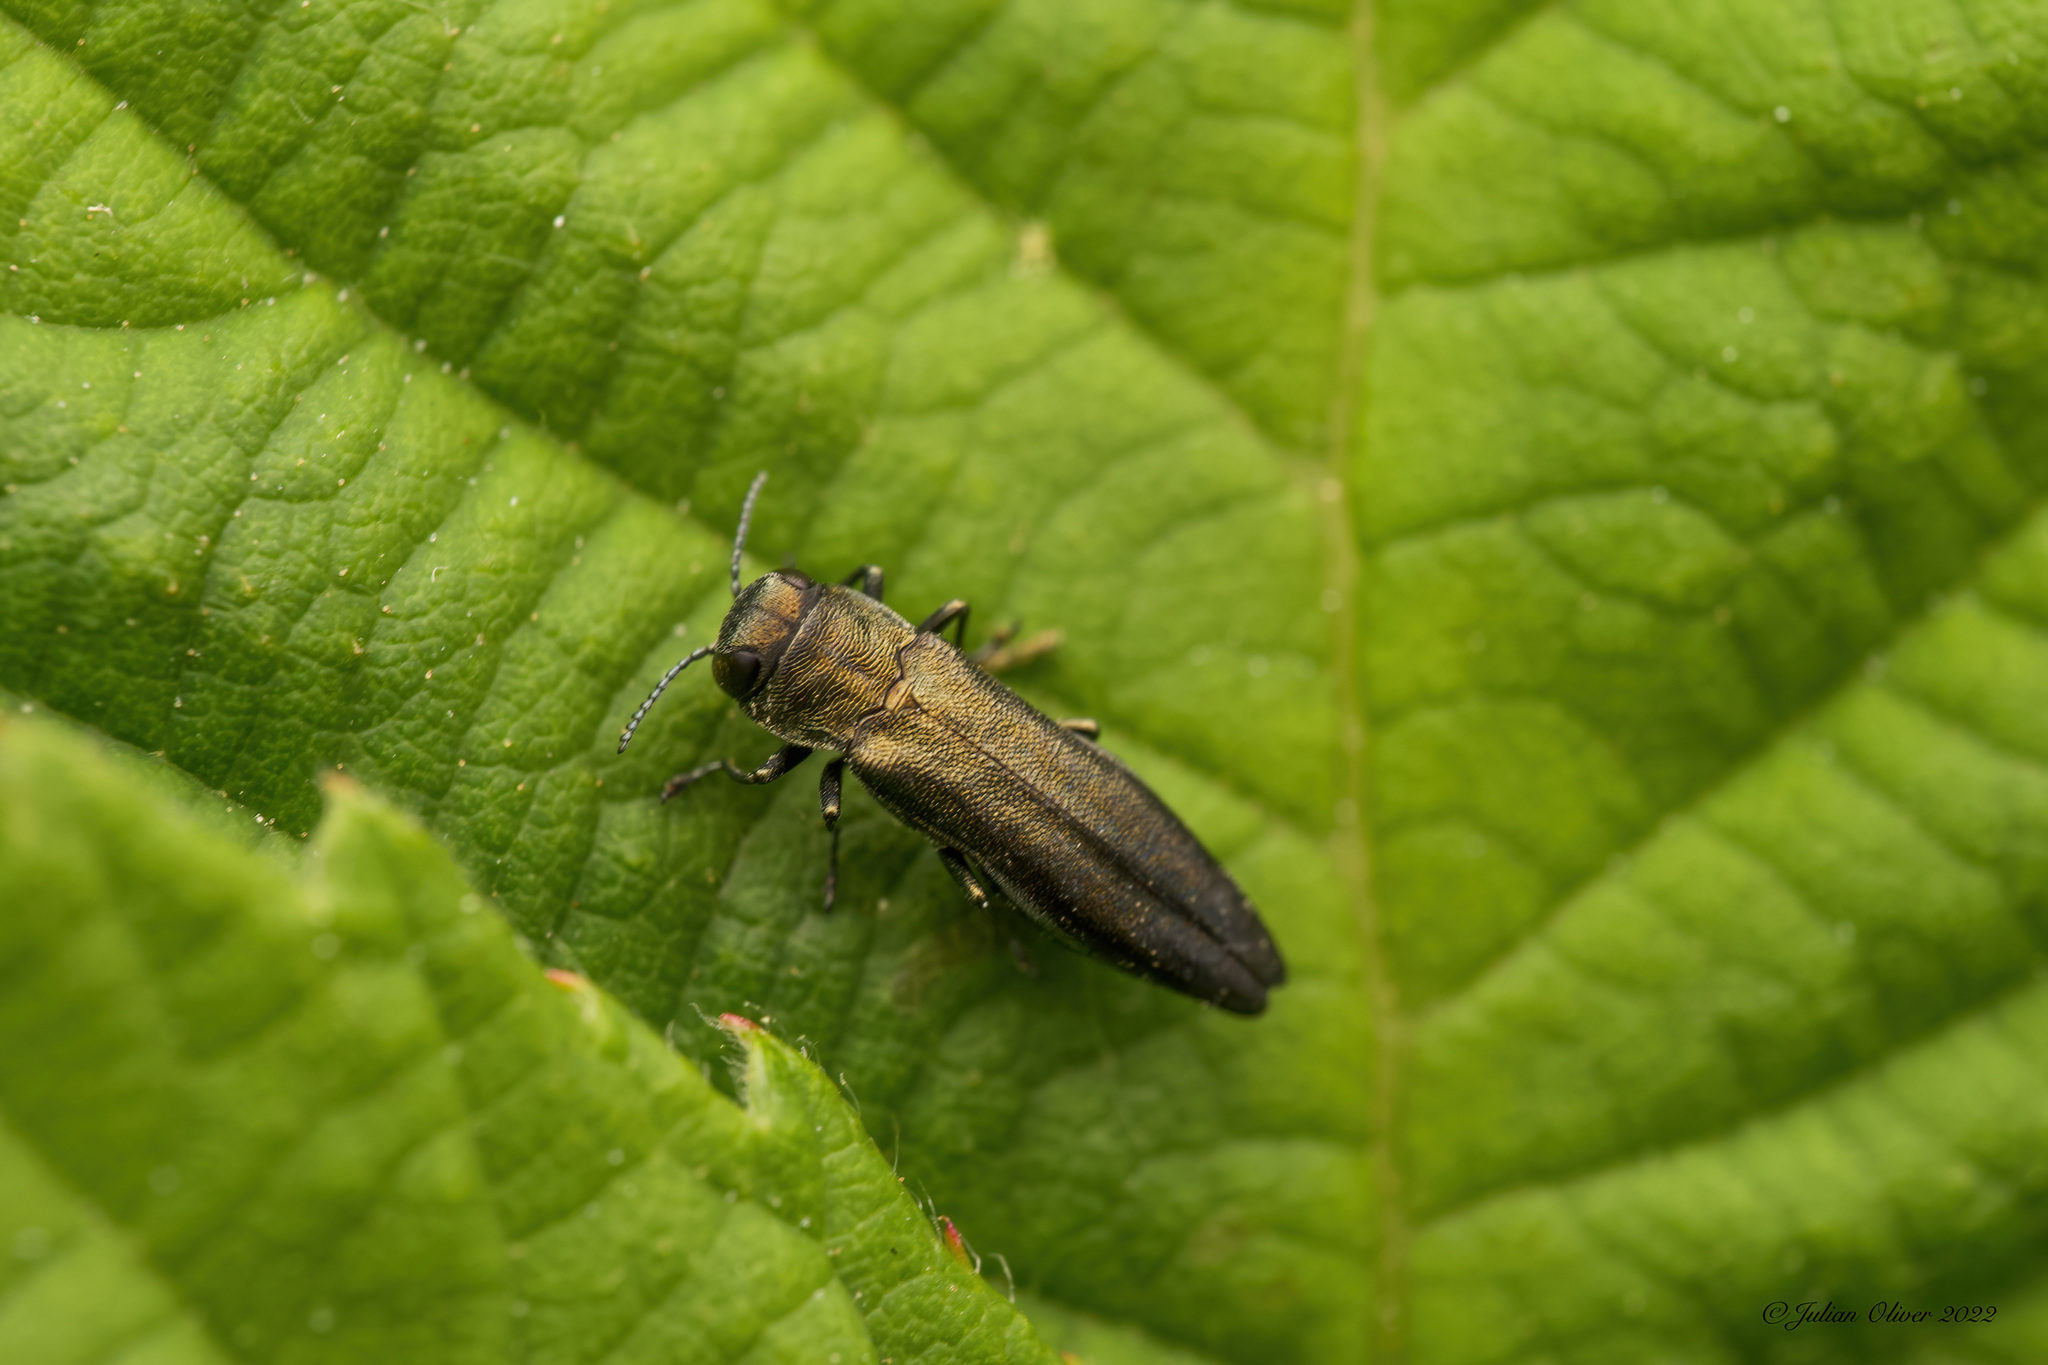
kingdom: Animalia
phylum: Arthropoda
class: Insecta
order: Coleoptera
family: Buprestidae
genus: Agrilus
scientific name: Agrilus cuprescens
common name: Rose stem girdler
